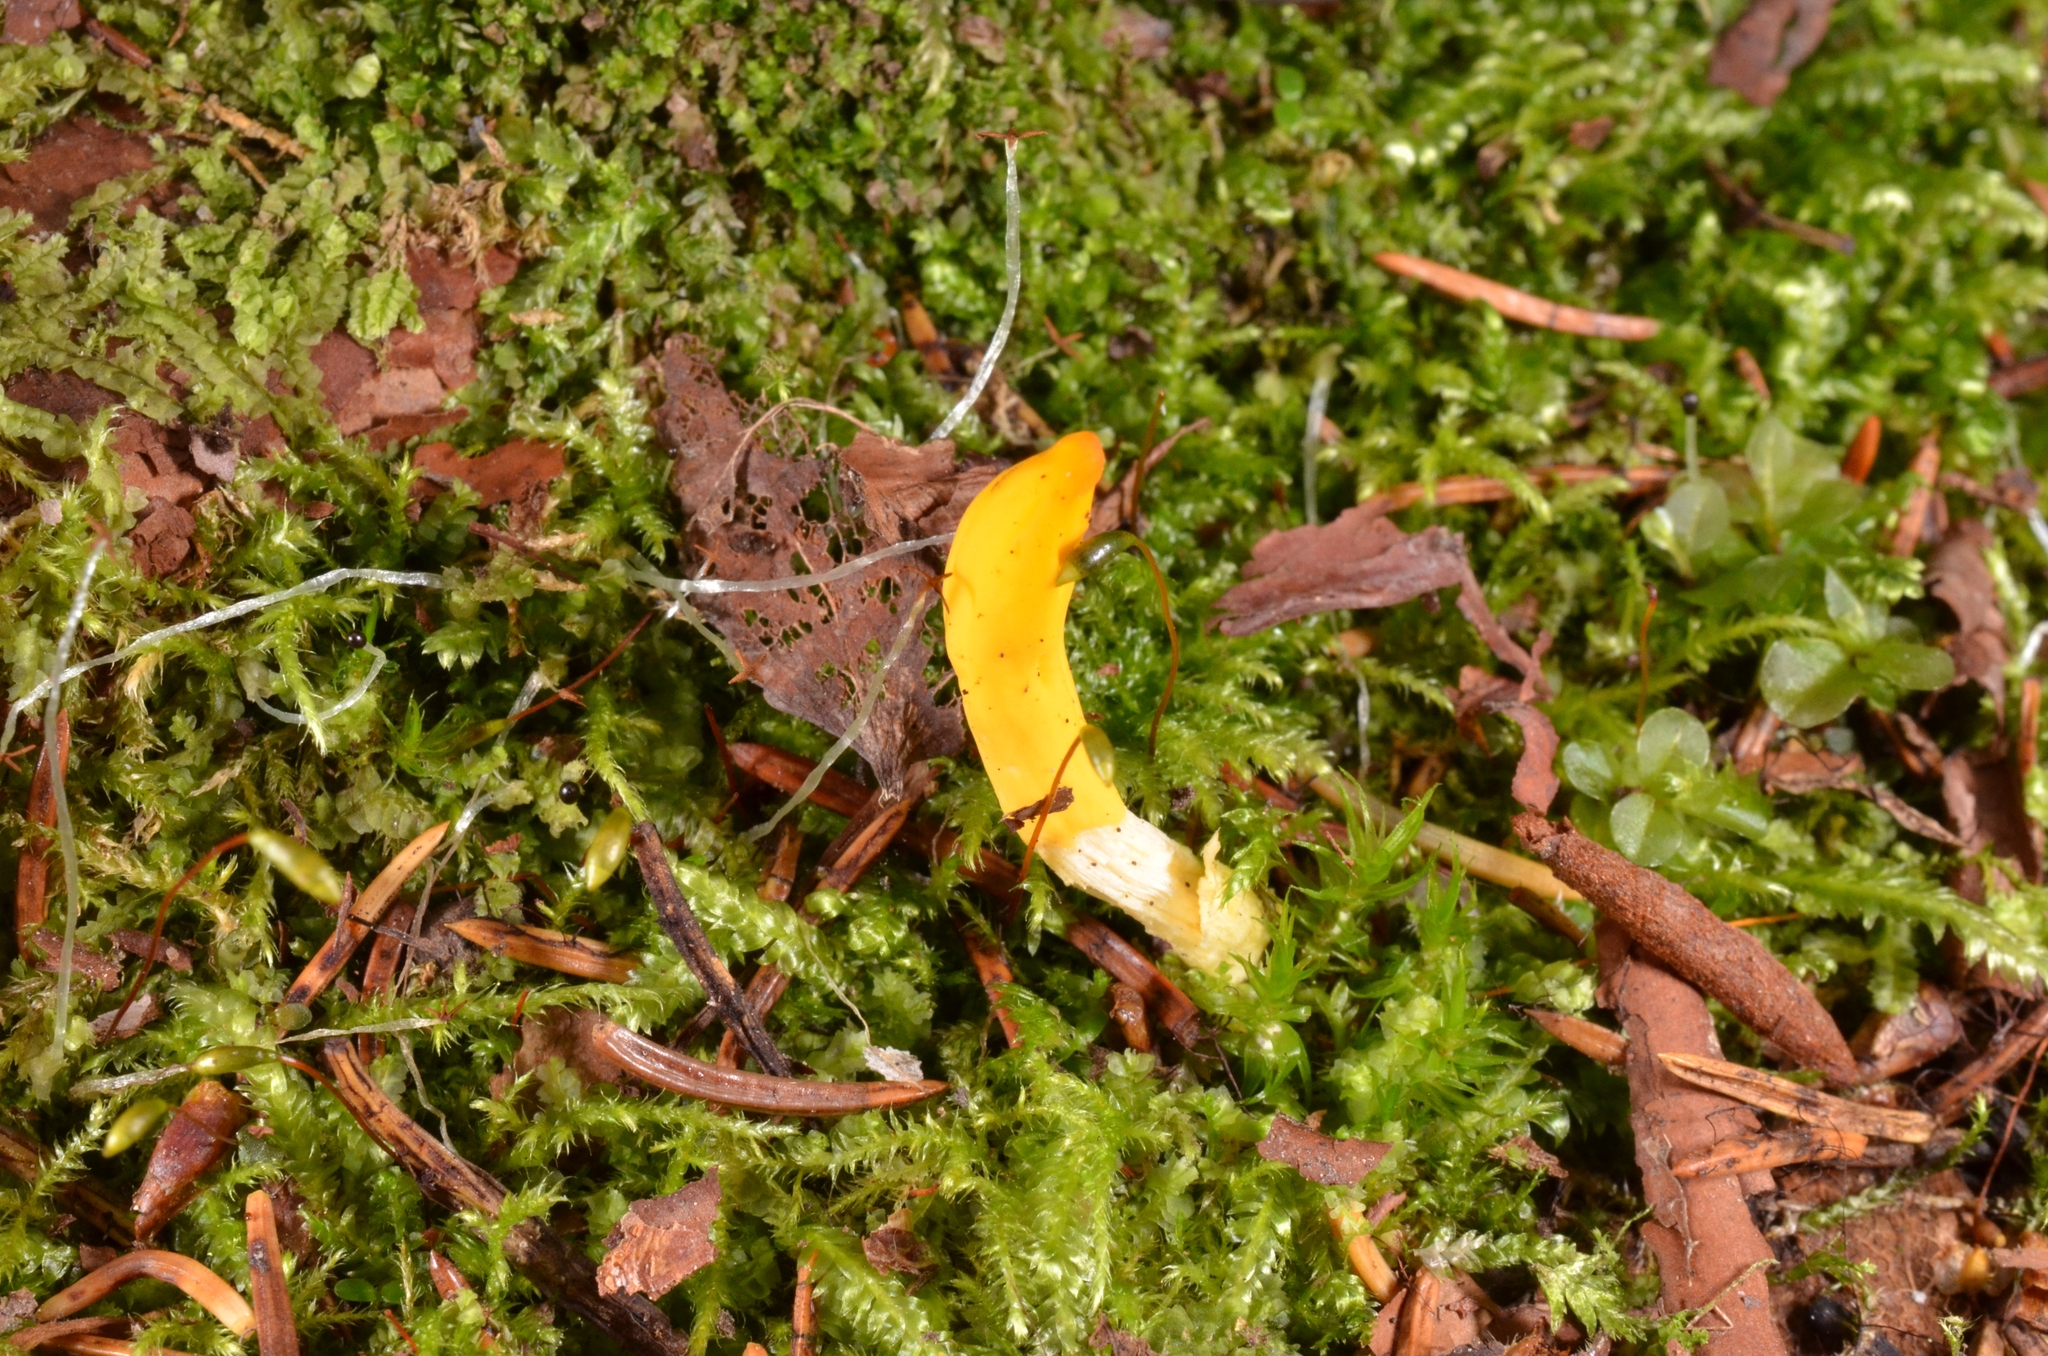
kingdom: Fungi
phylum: Ascomycota
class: Neolectomycetes
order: Neolectales
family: Neolectaceae
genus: Neolecta
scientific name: Neolecta vitellina
